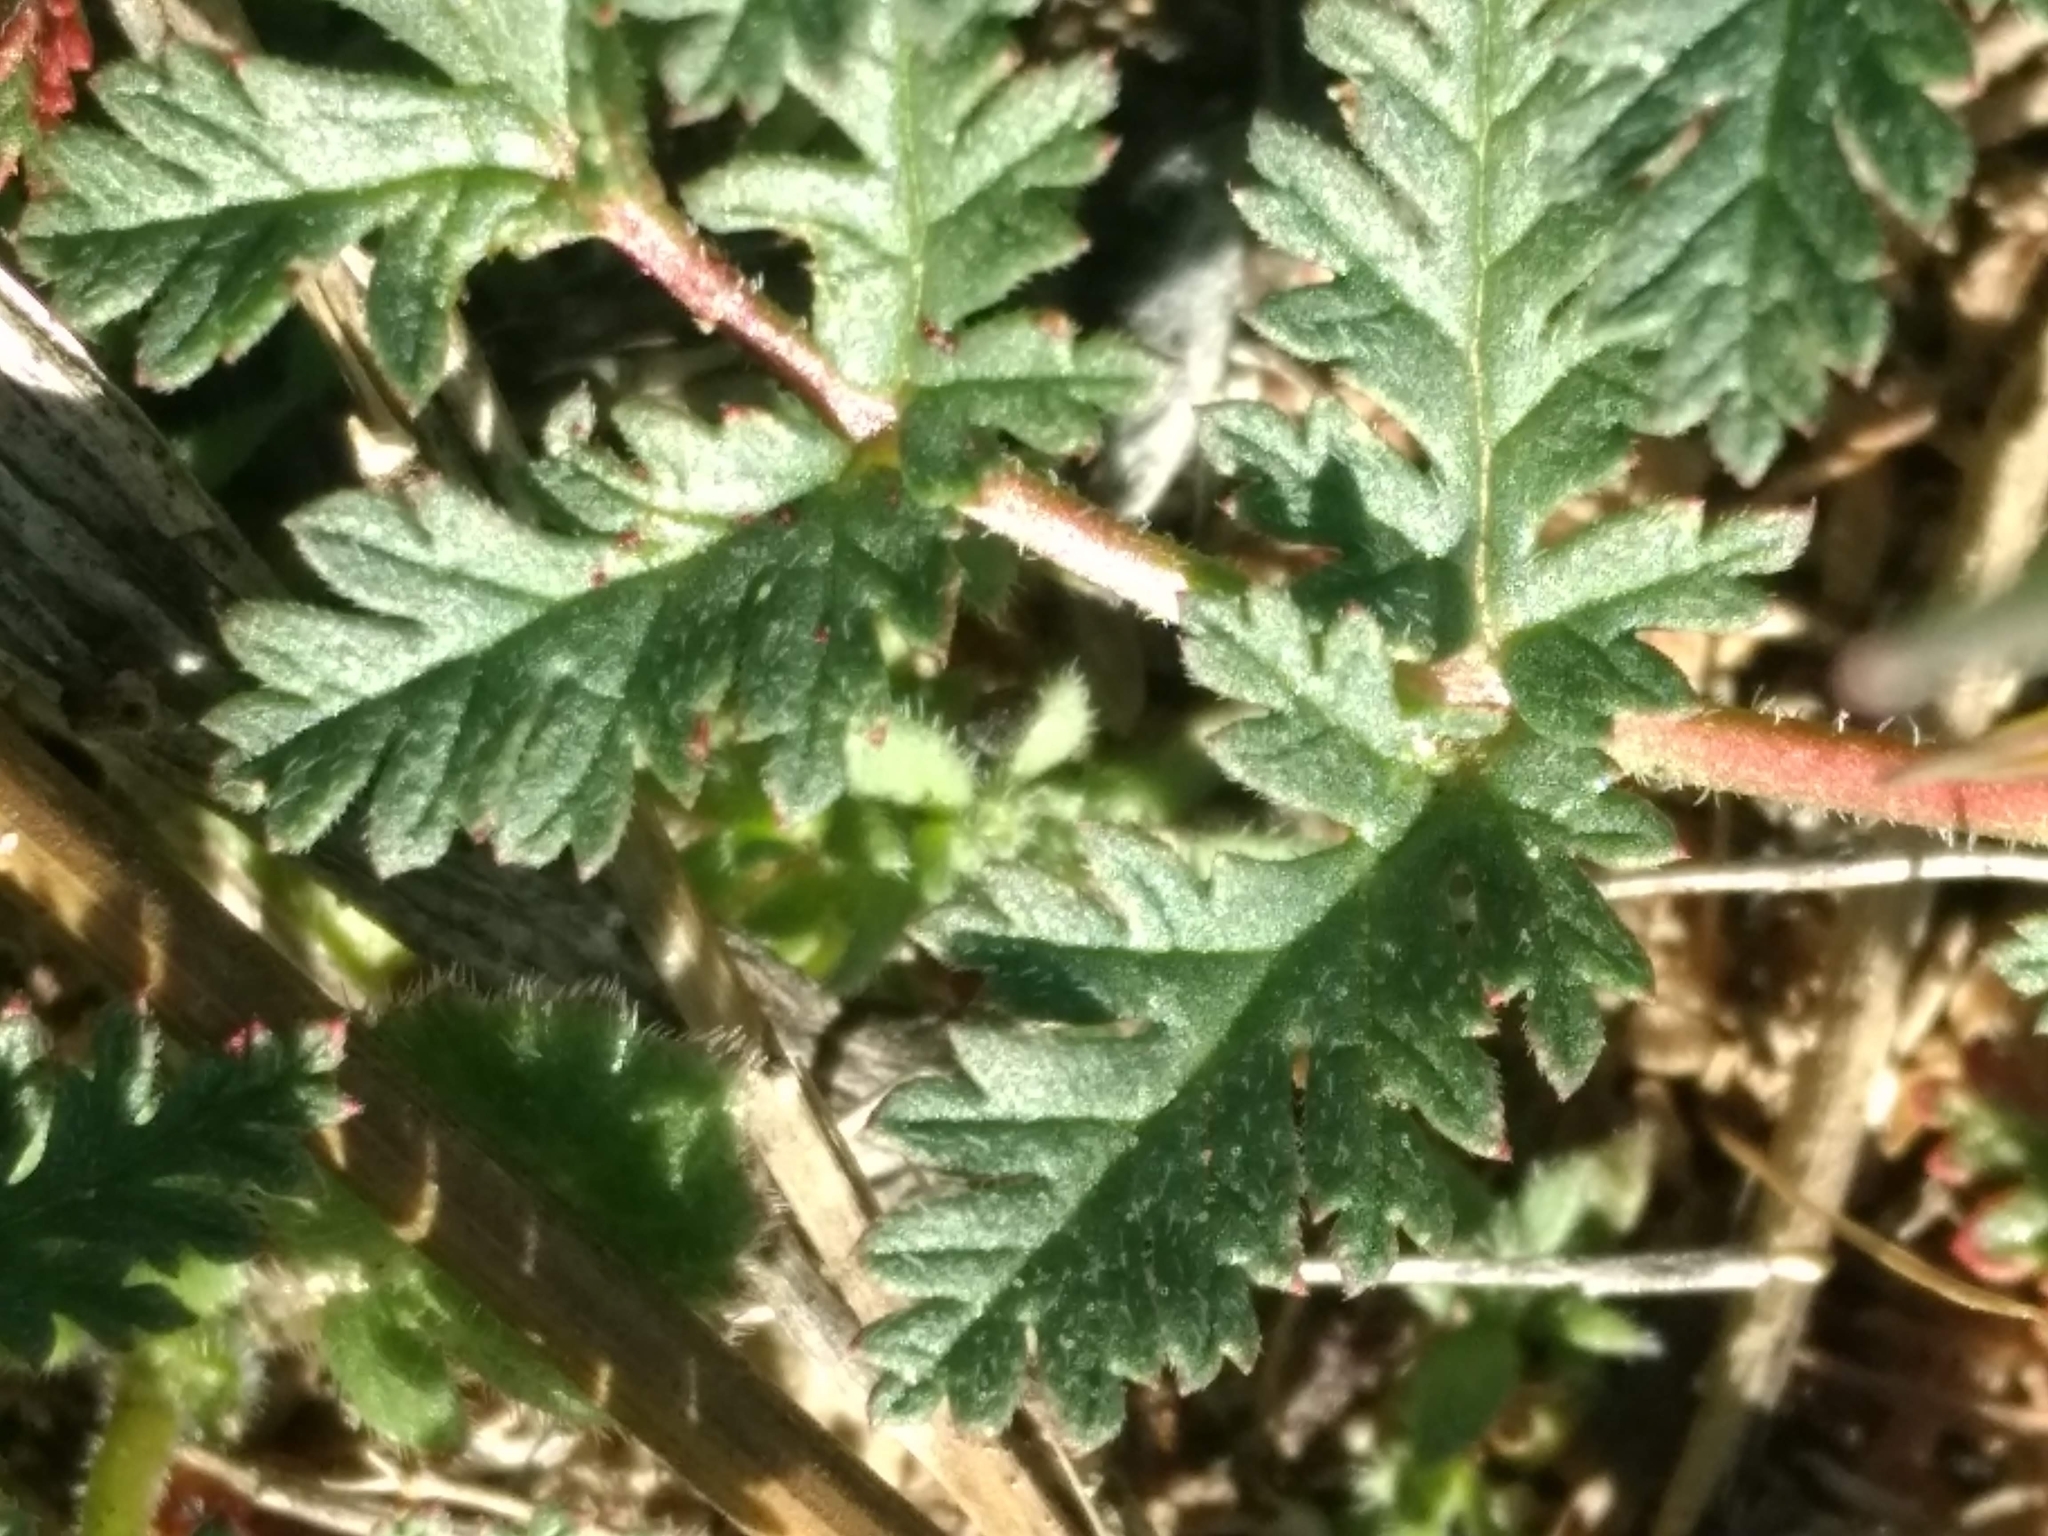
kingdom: Plantae
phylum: Tracheophyta
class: Magnoliopsida
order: Geraniales
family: Geraniaceae
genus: Erodium
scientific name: Erodium cicutarium
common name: Common stork's-bill
